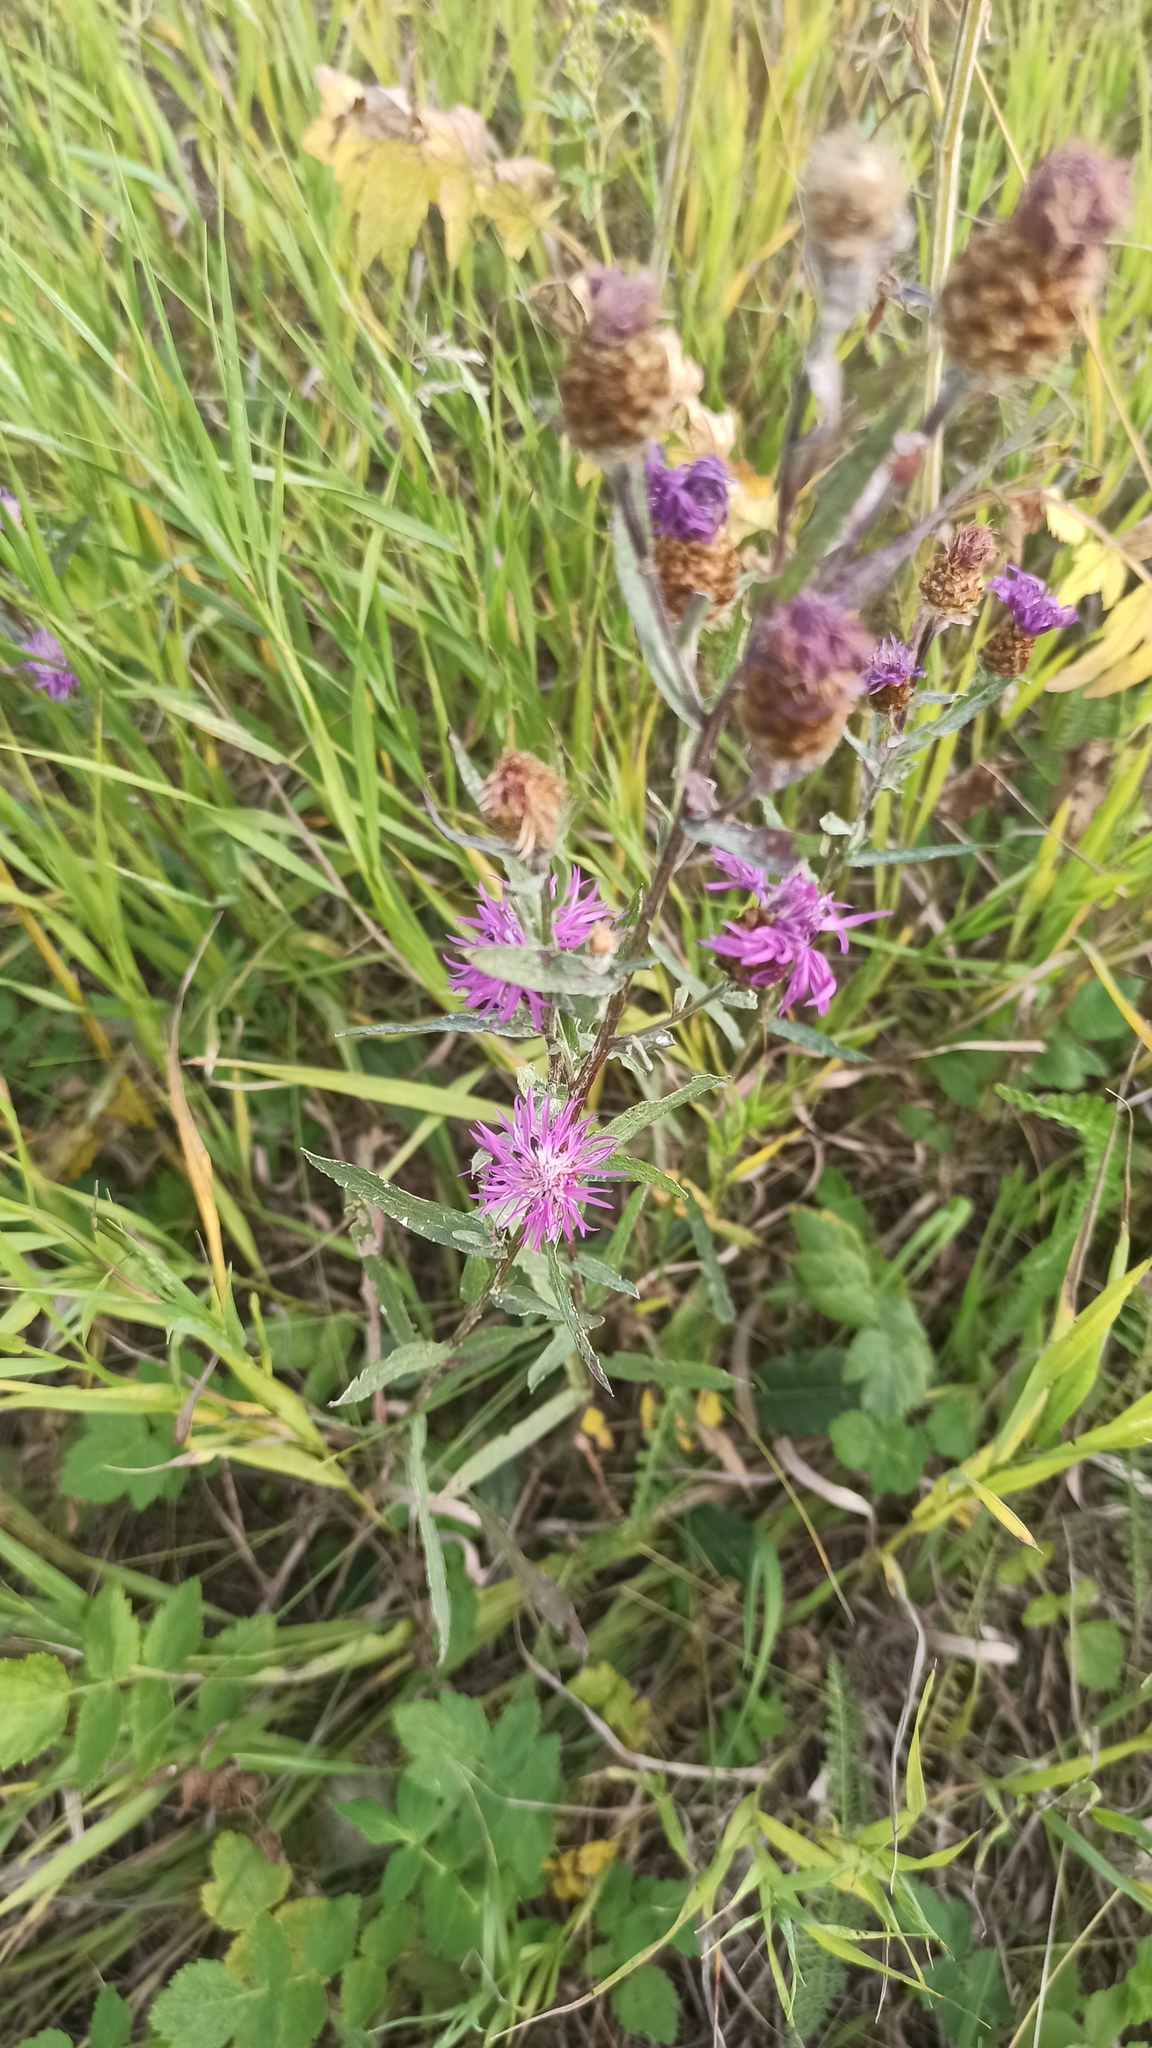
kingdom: Plantae
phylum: Tracheophyta
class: Magnoliopsida
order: Asterales
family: Asteraceae
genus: Centaurea
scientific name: Centaurea jacea
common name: Brown knapweed
